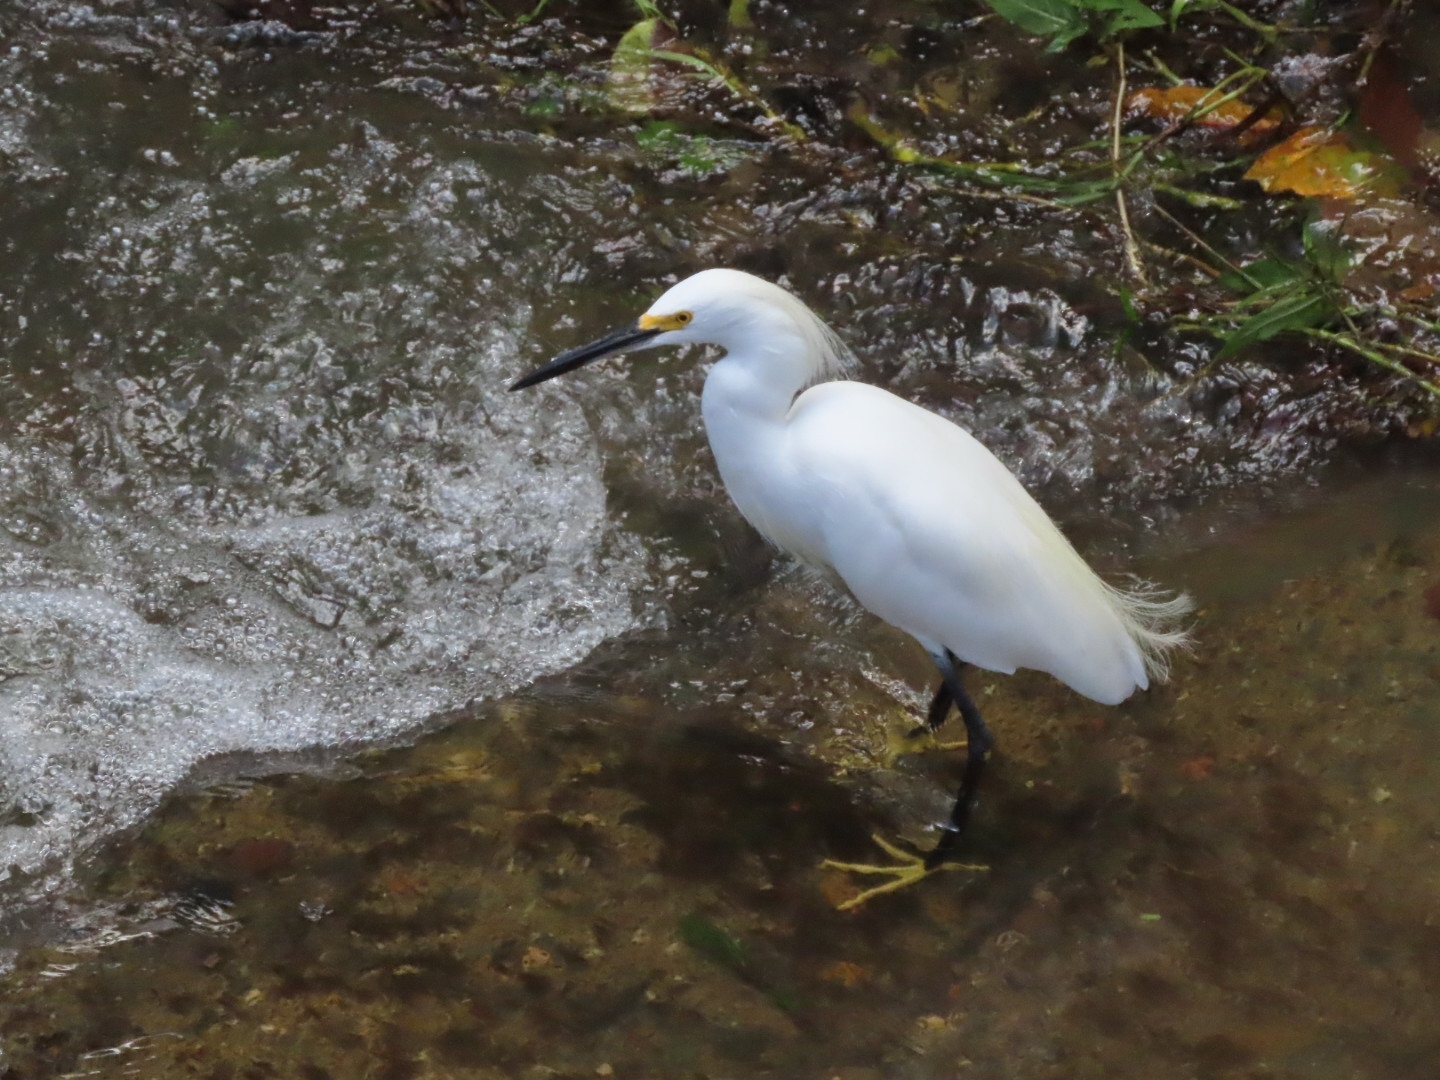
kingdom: Animalia
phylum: Chordata
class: Aves
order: Pelecaniformes
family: Ardeidae
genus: Egretta
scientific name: Egretta thula
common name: Snowy egret
